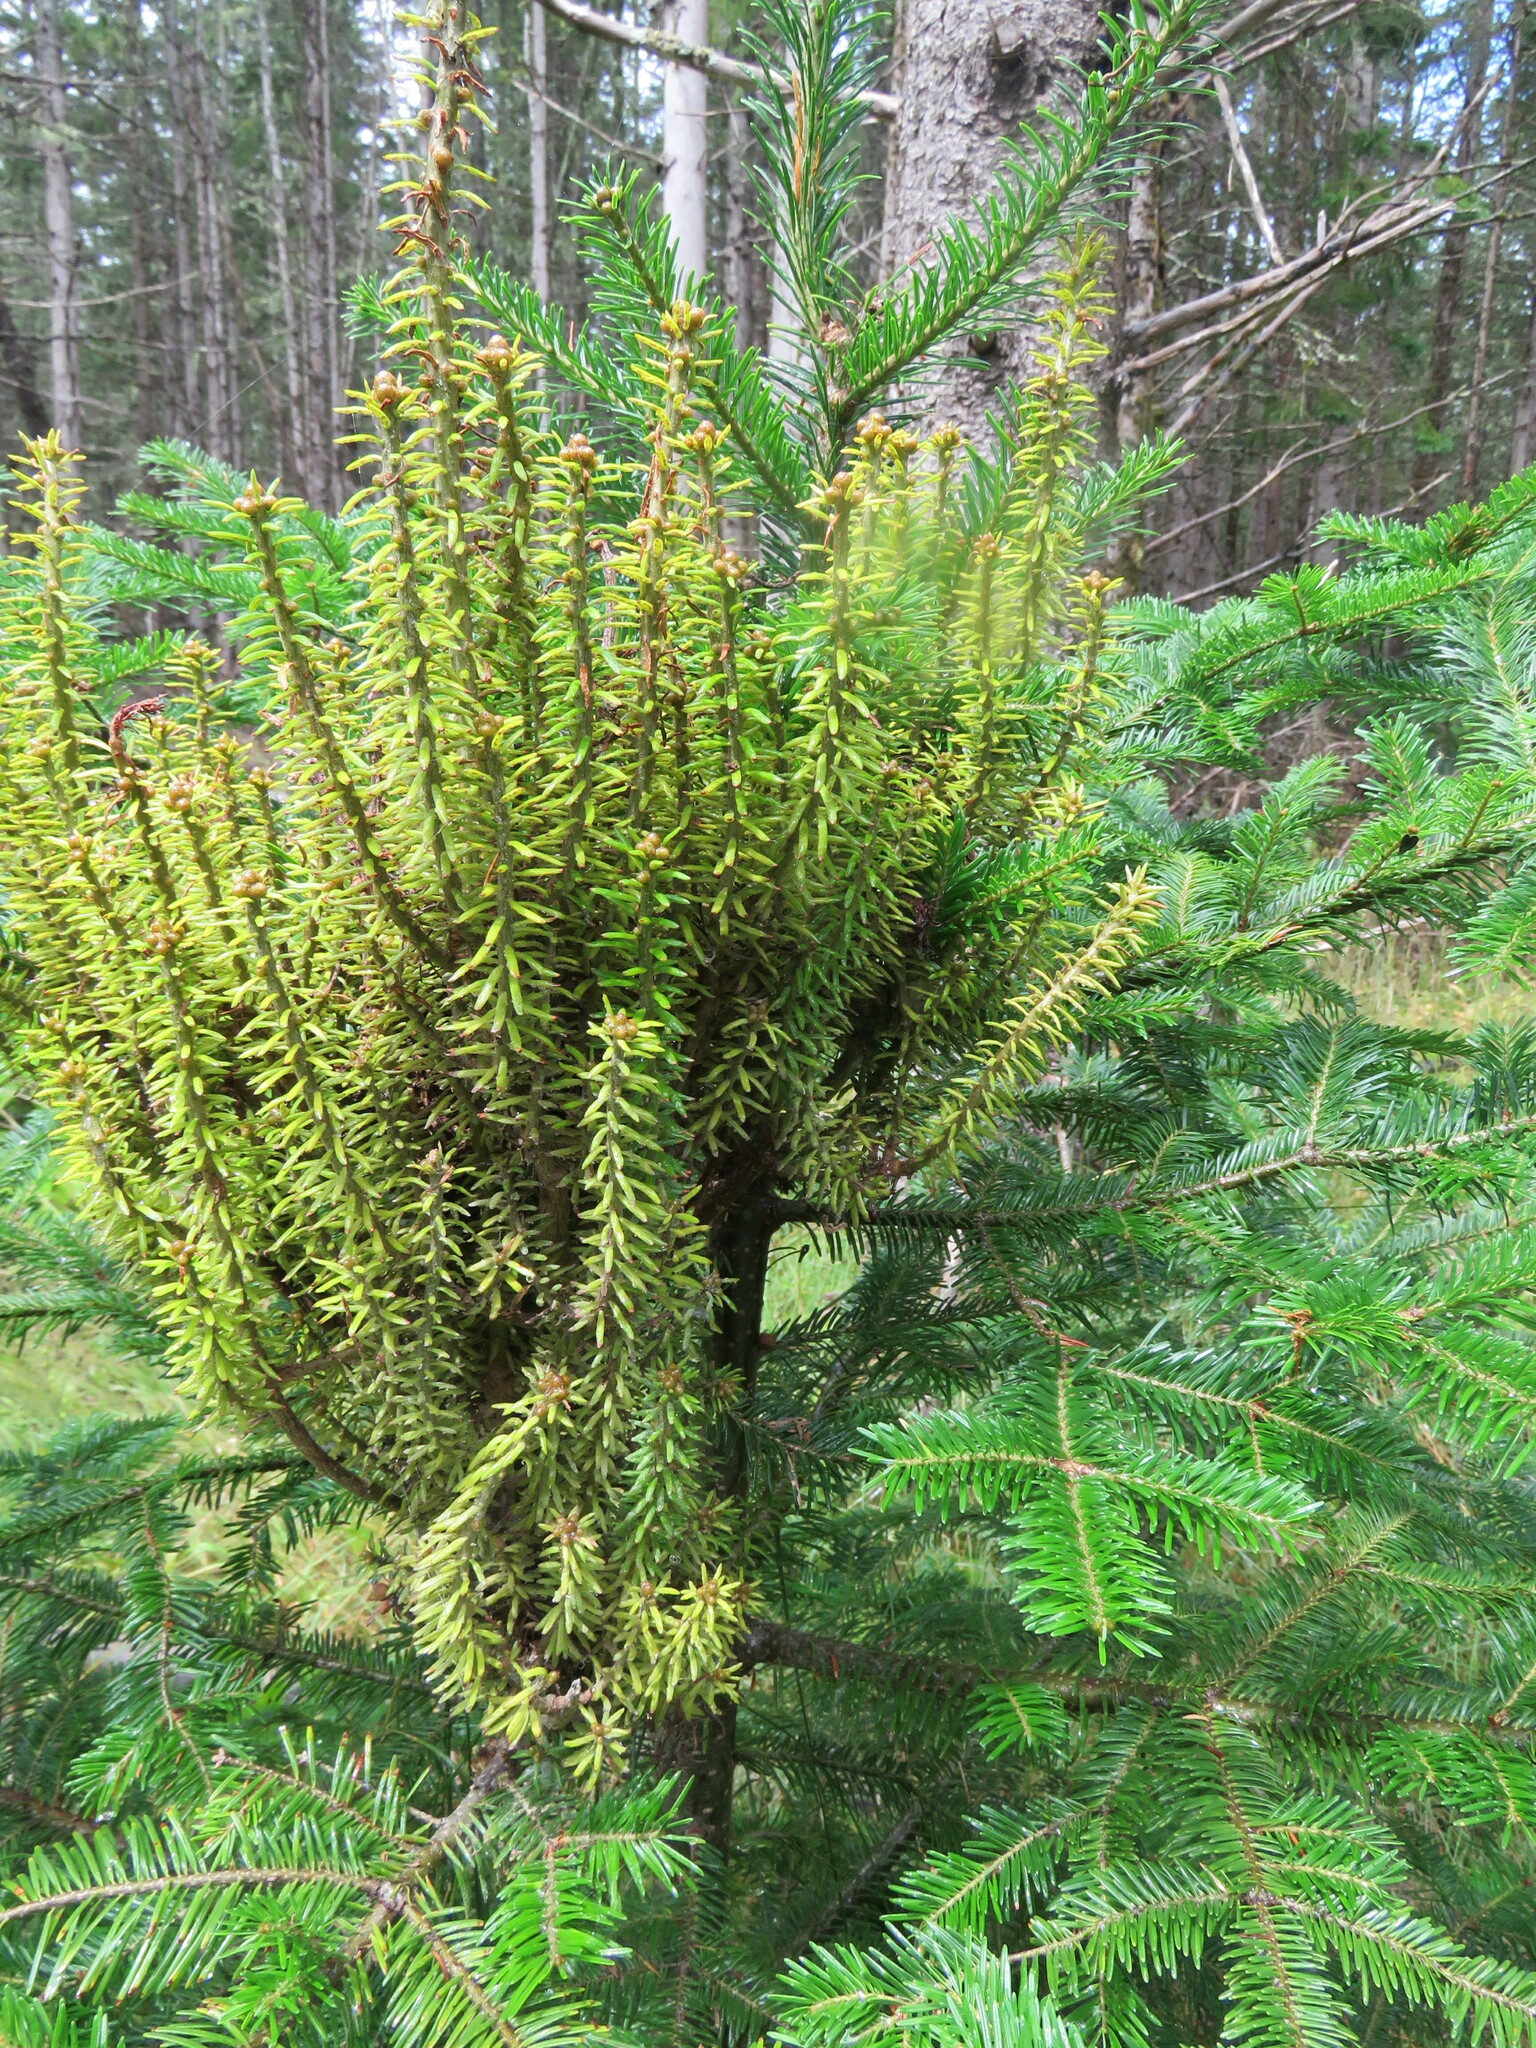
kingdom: Fungi
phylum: Basidiomycota
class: Pucciniomycetes
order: Pucciniales
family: Pucciniastraceae
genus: Melampsorella
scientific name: Melampsorella elatina
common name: Fir broom rust
